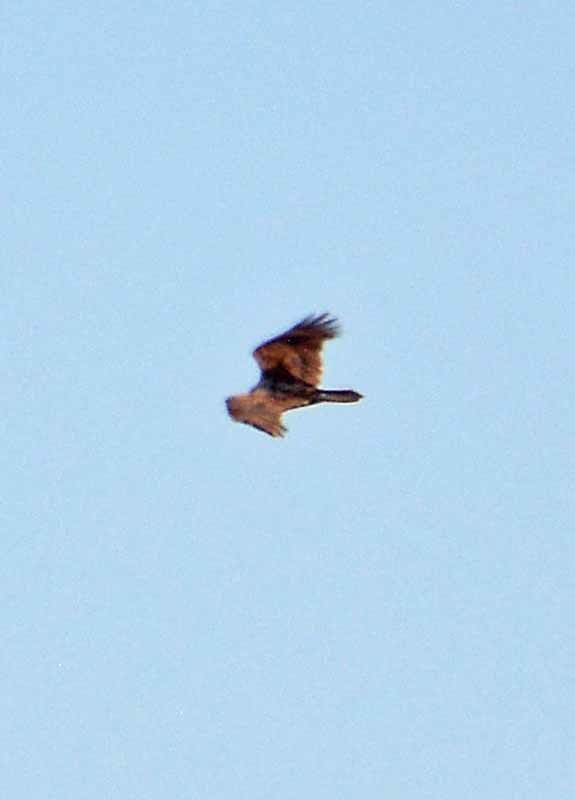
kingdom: Animalia
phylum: Chordata
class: Aves
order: Accipitriformes
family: Cathartidae
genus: Cathartes
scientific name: Cathartes aura
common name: Turkey vulture
